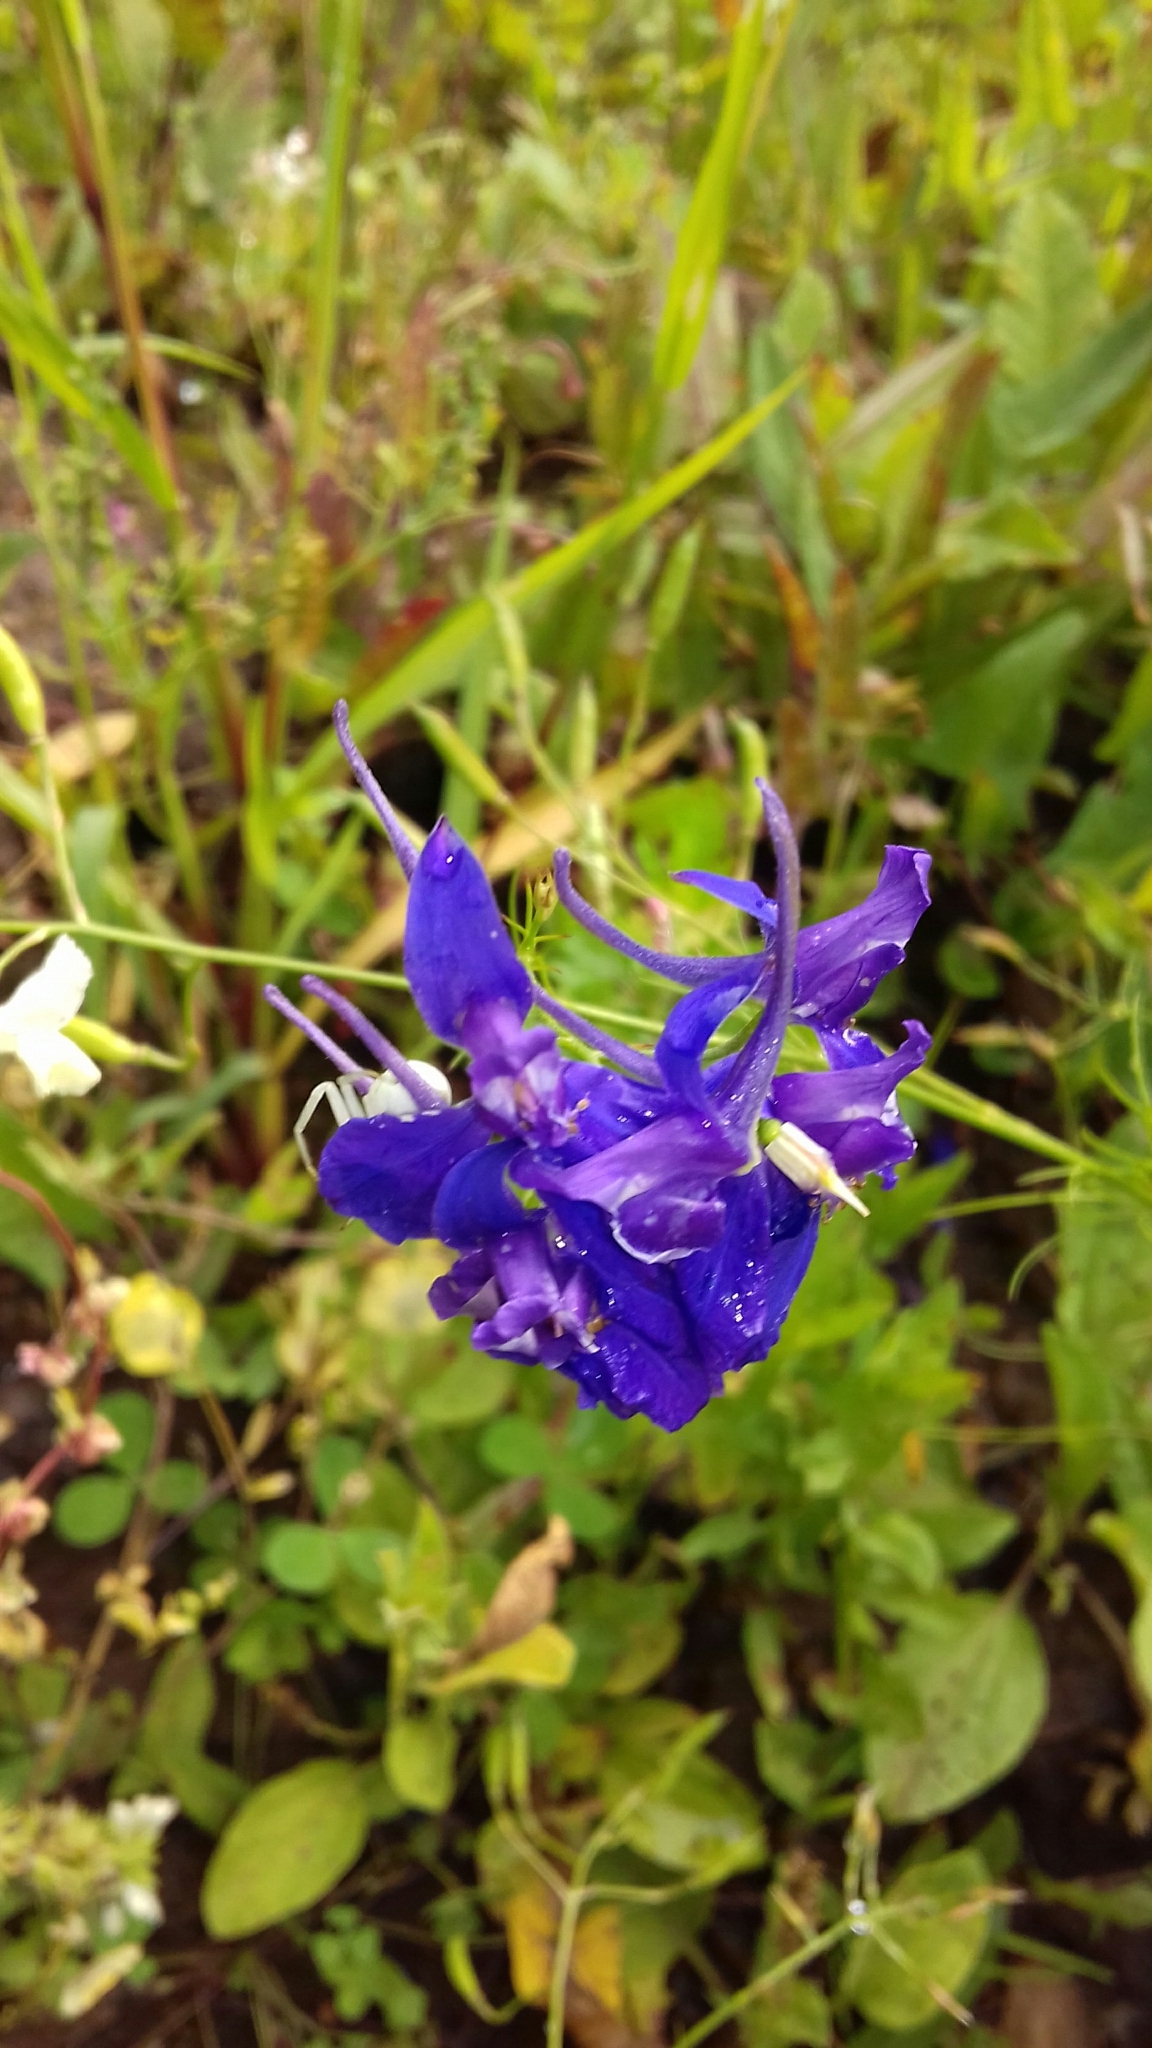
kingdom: Plantae
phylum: Tracheophyta
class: Magnoliopsida
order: Ranunculales
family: Ranunculaceae
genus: Delphinium
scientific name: Delphinium consolida
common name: Branching larkspur
